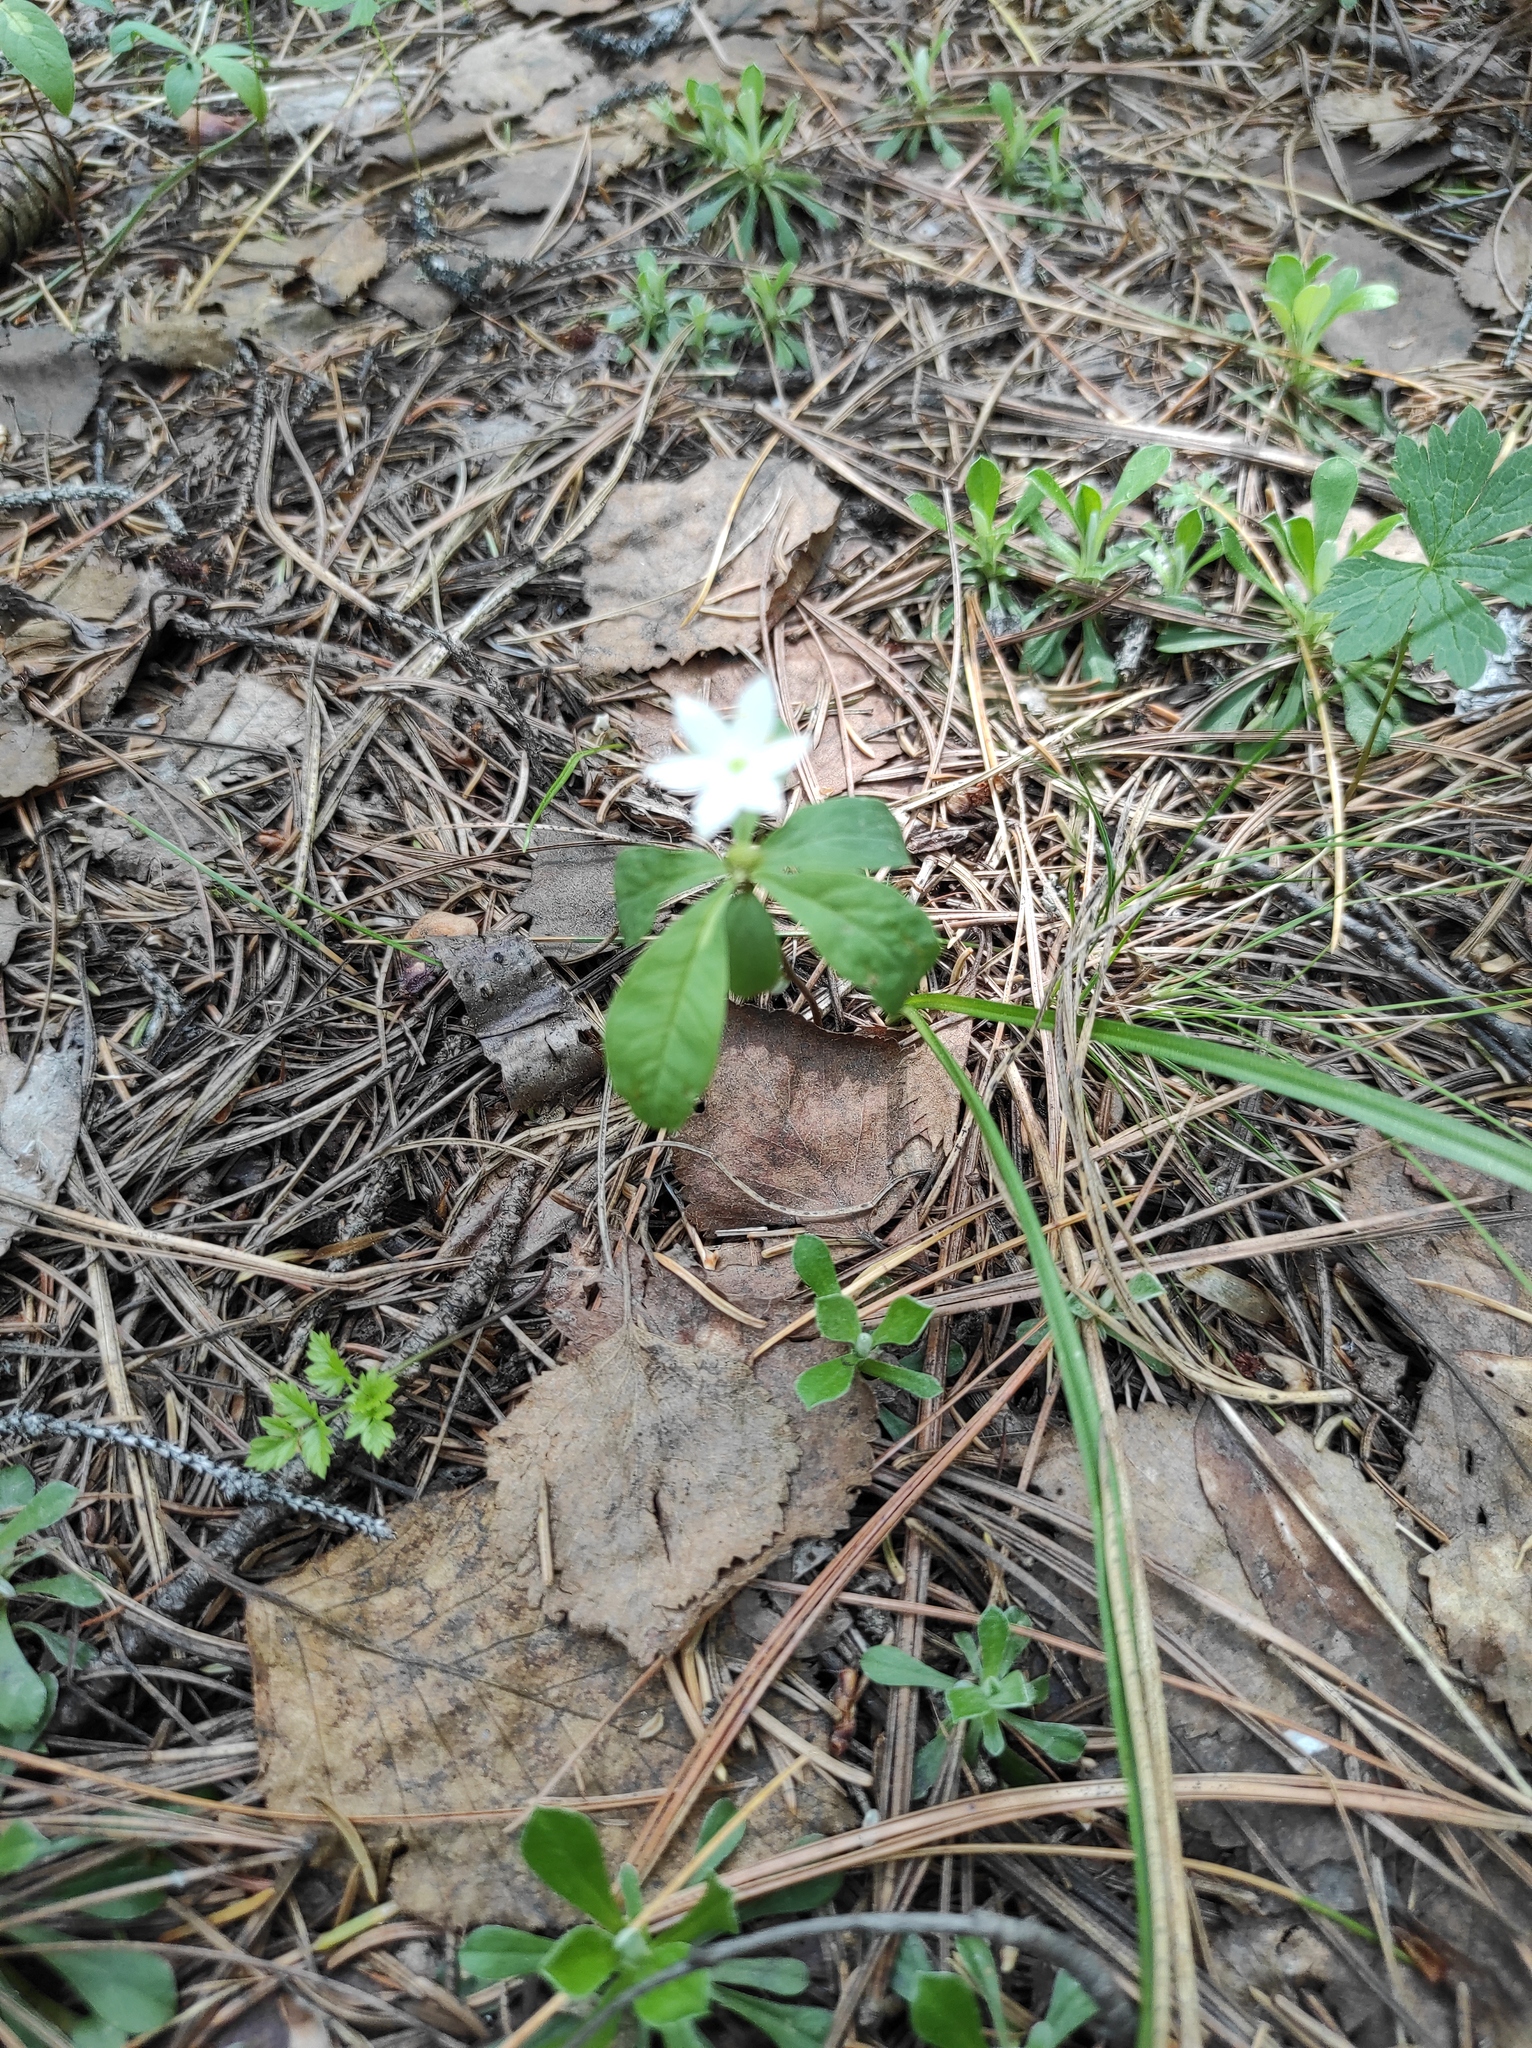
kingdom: Plantae
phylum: Tracheophyta
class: Magnoliopsida
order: Ericales
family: Primulaceae
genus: Lysimachia
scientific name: Lysimachia europaea
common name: Arctic starflower
